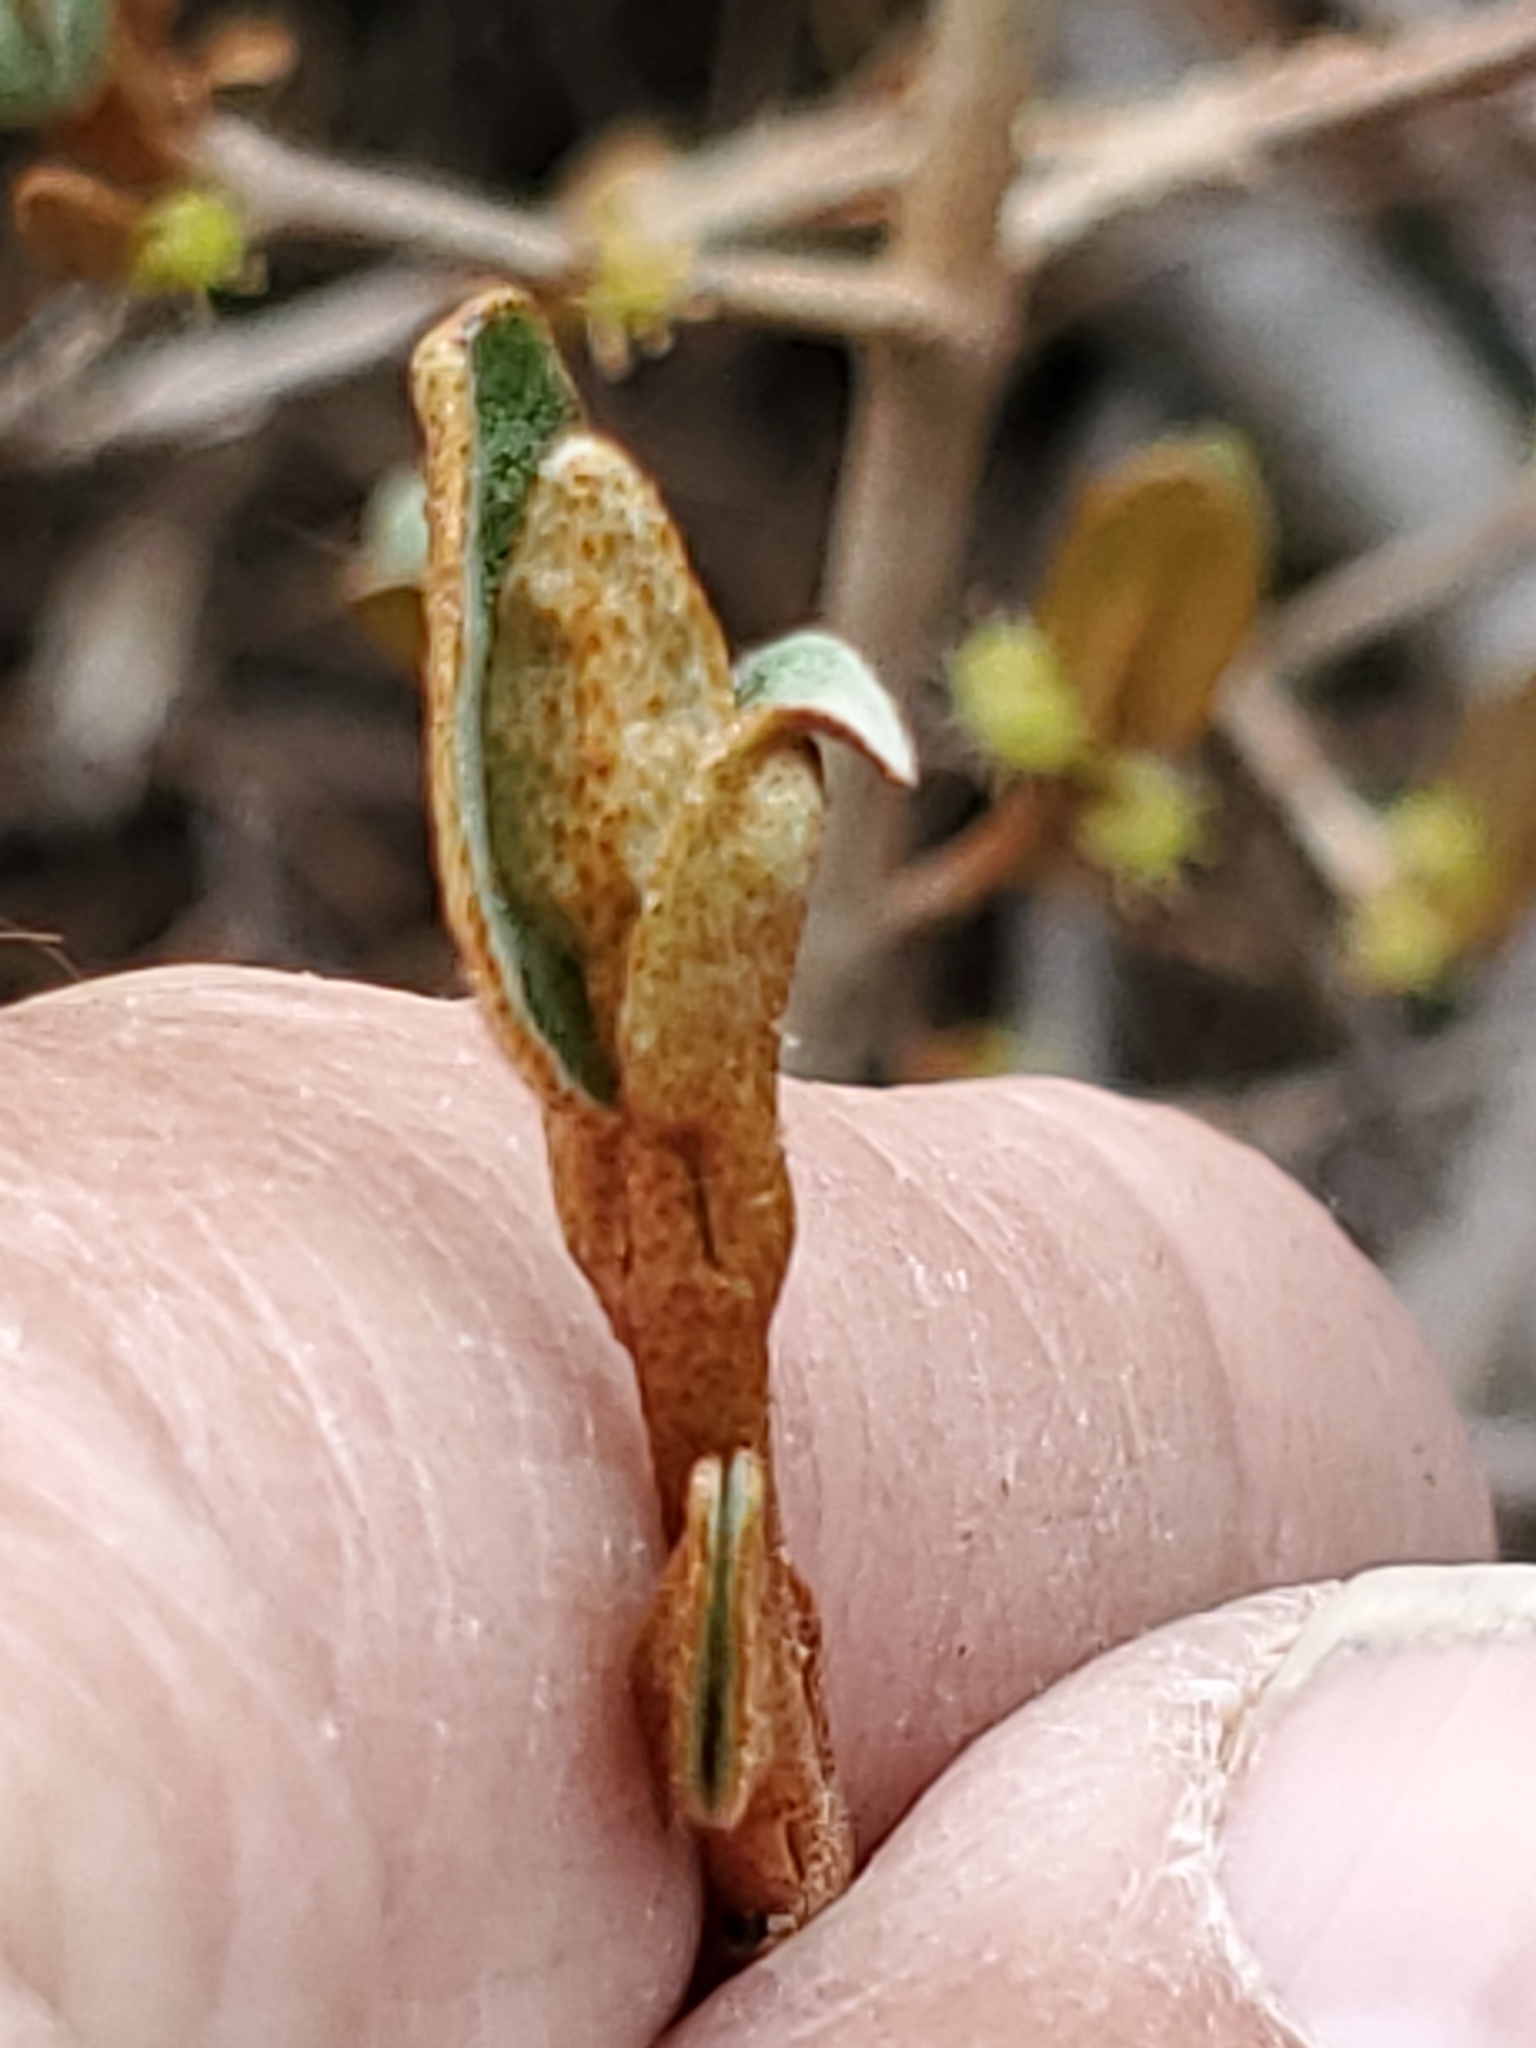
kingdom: Plantae
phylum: Tracheophyta
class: Magnoliopsida
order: Rosales
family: Elaeagnaceae
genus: Shepherdia
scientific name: Shepherdia canadensis
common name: Soapberry
